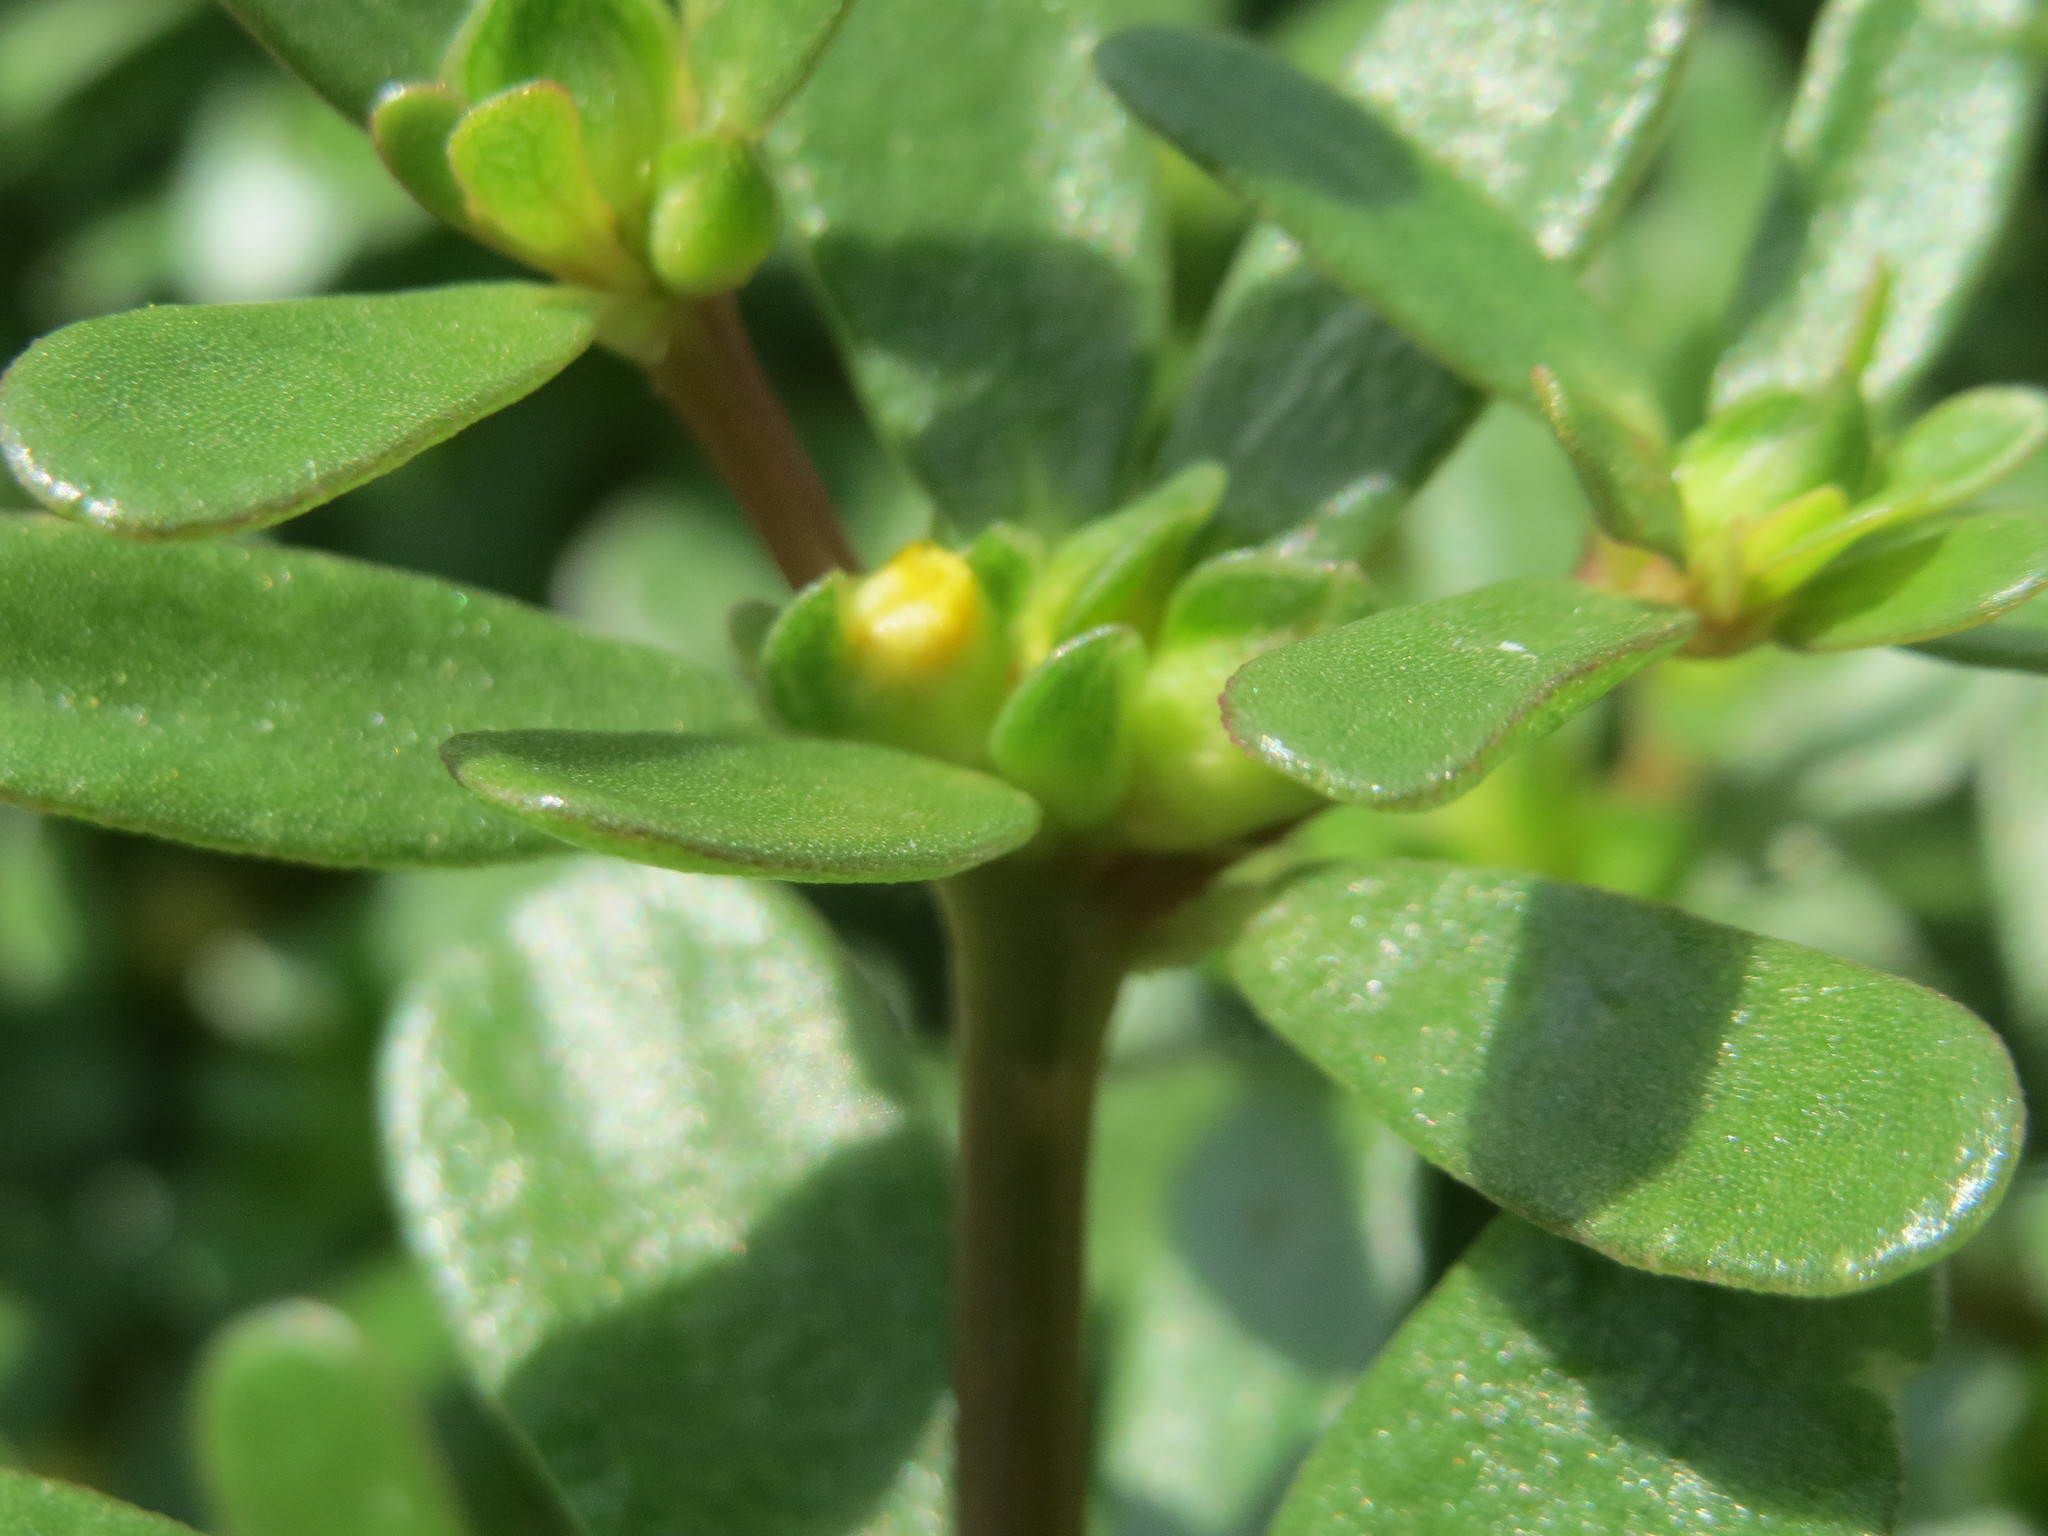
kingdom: Plantae
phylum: Tracheophyta
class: Magnoliopsida
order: Caryophyllales
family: Portulacaceae
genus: Portulaca
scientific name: Portulaca oleracea
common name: Common purslane
